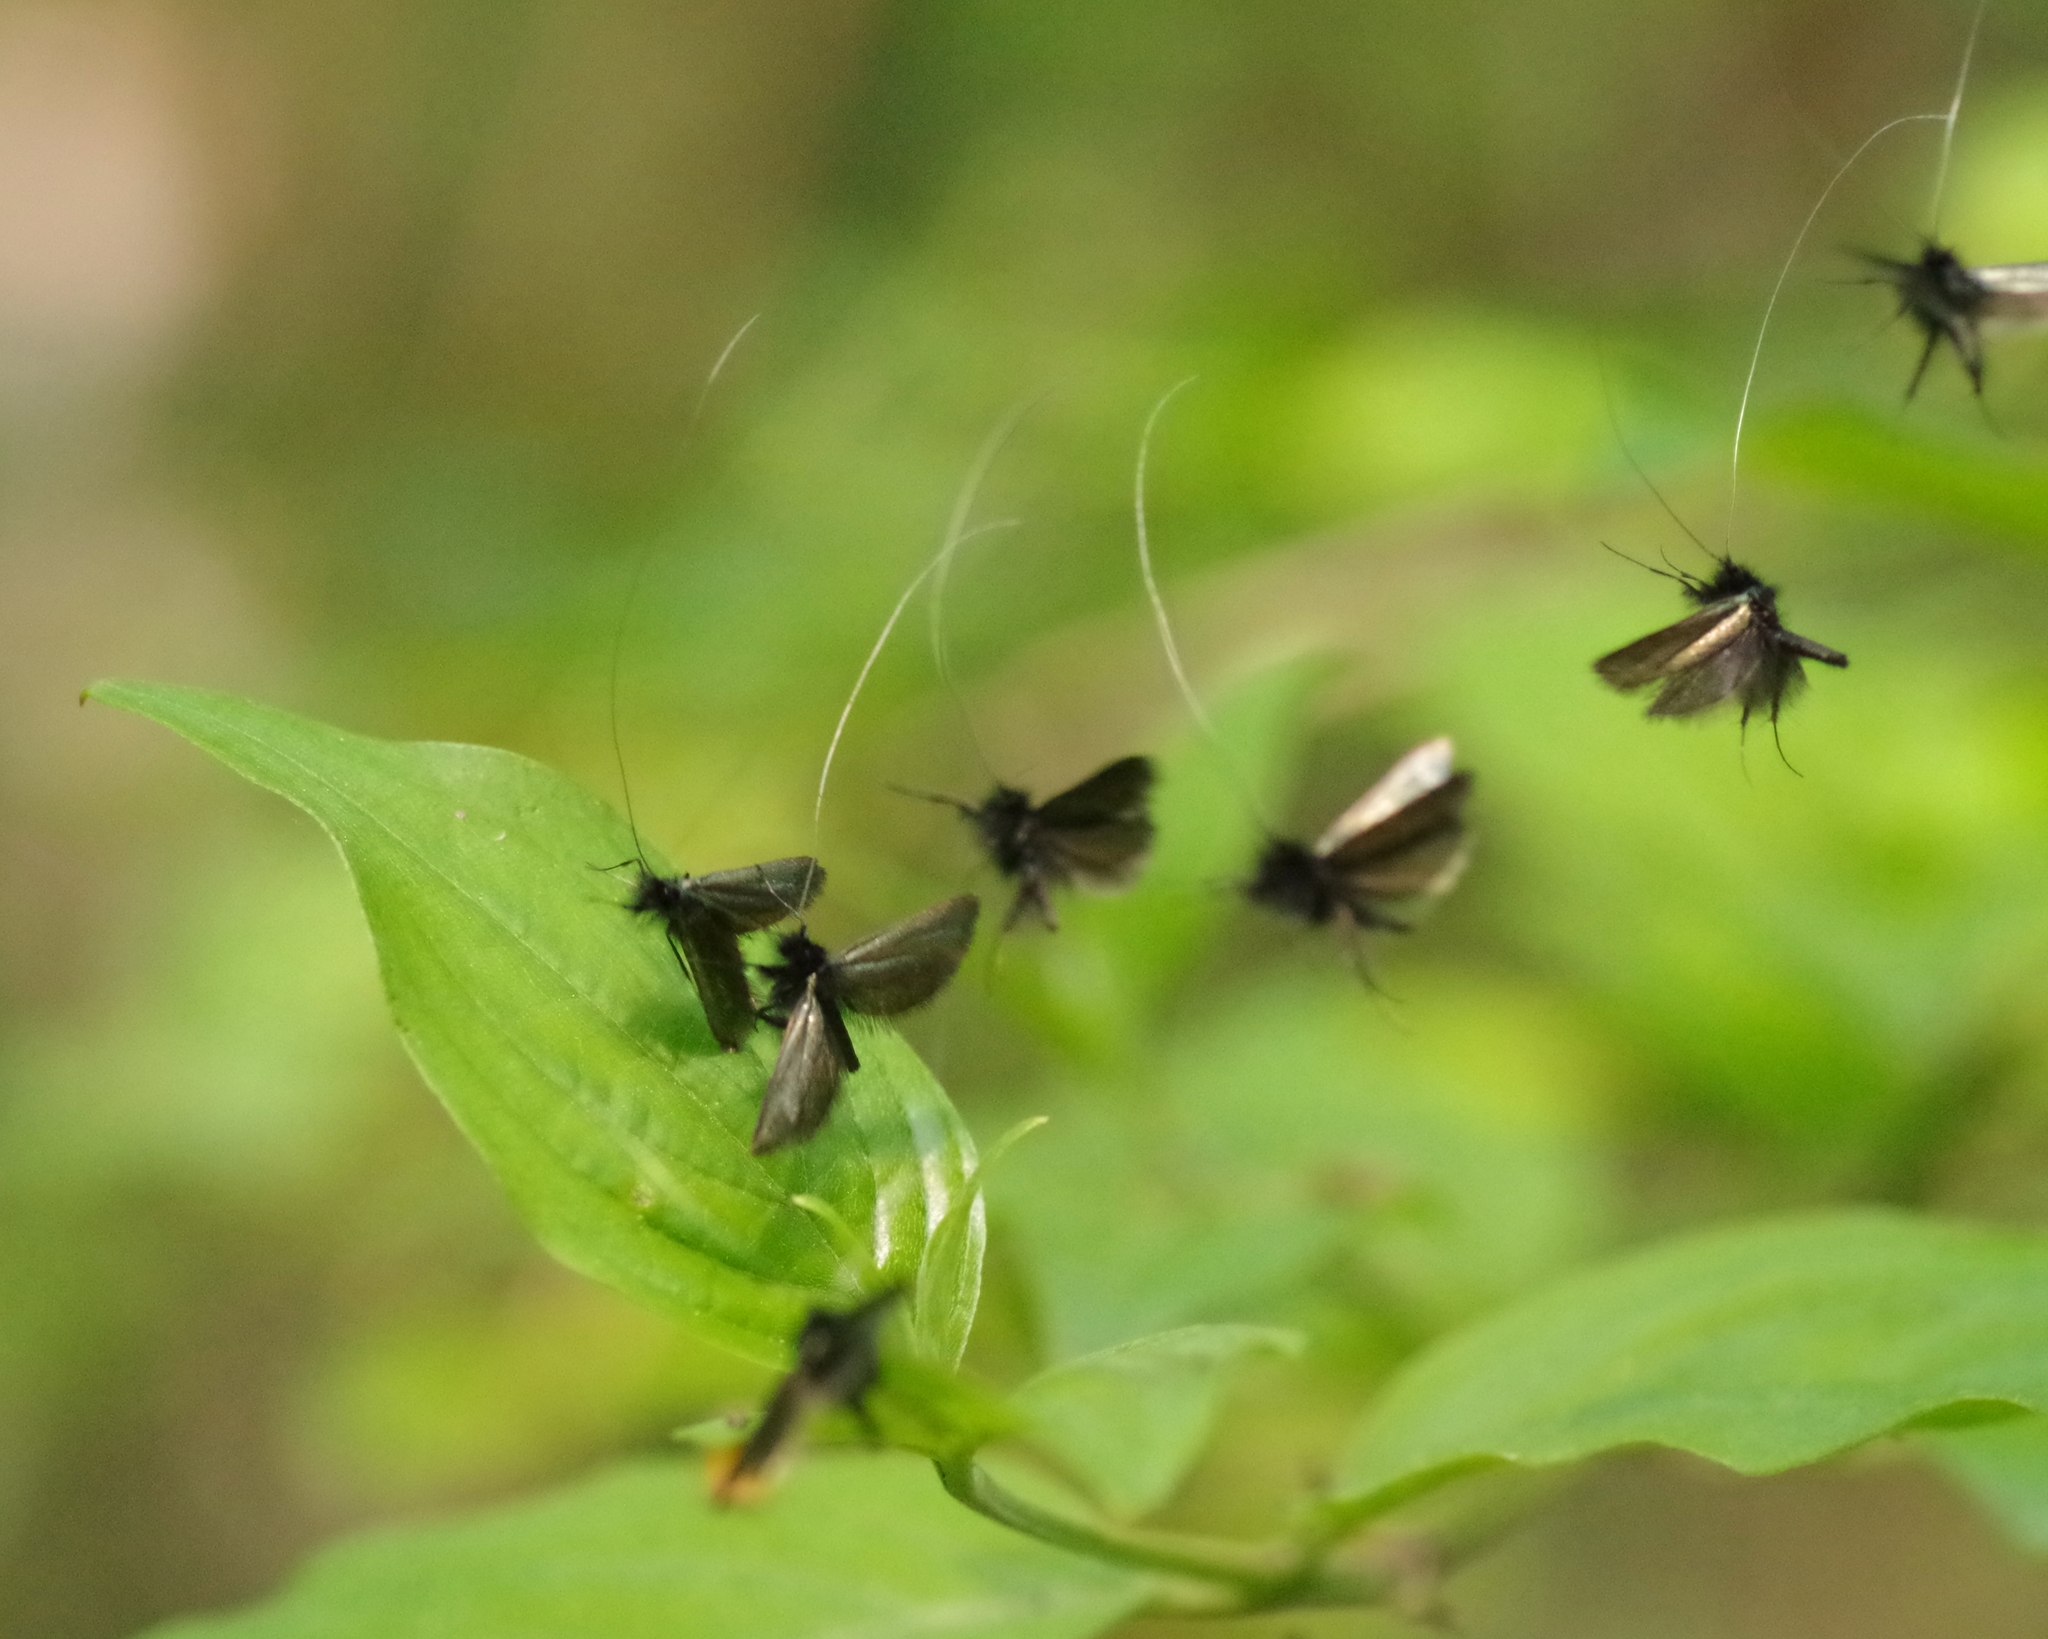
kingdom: Animalia
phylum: Arthropoda
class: Insecta
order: Lepidoptera
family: Adelidae
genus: Adela
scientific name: Adela viridella
